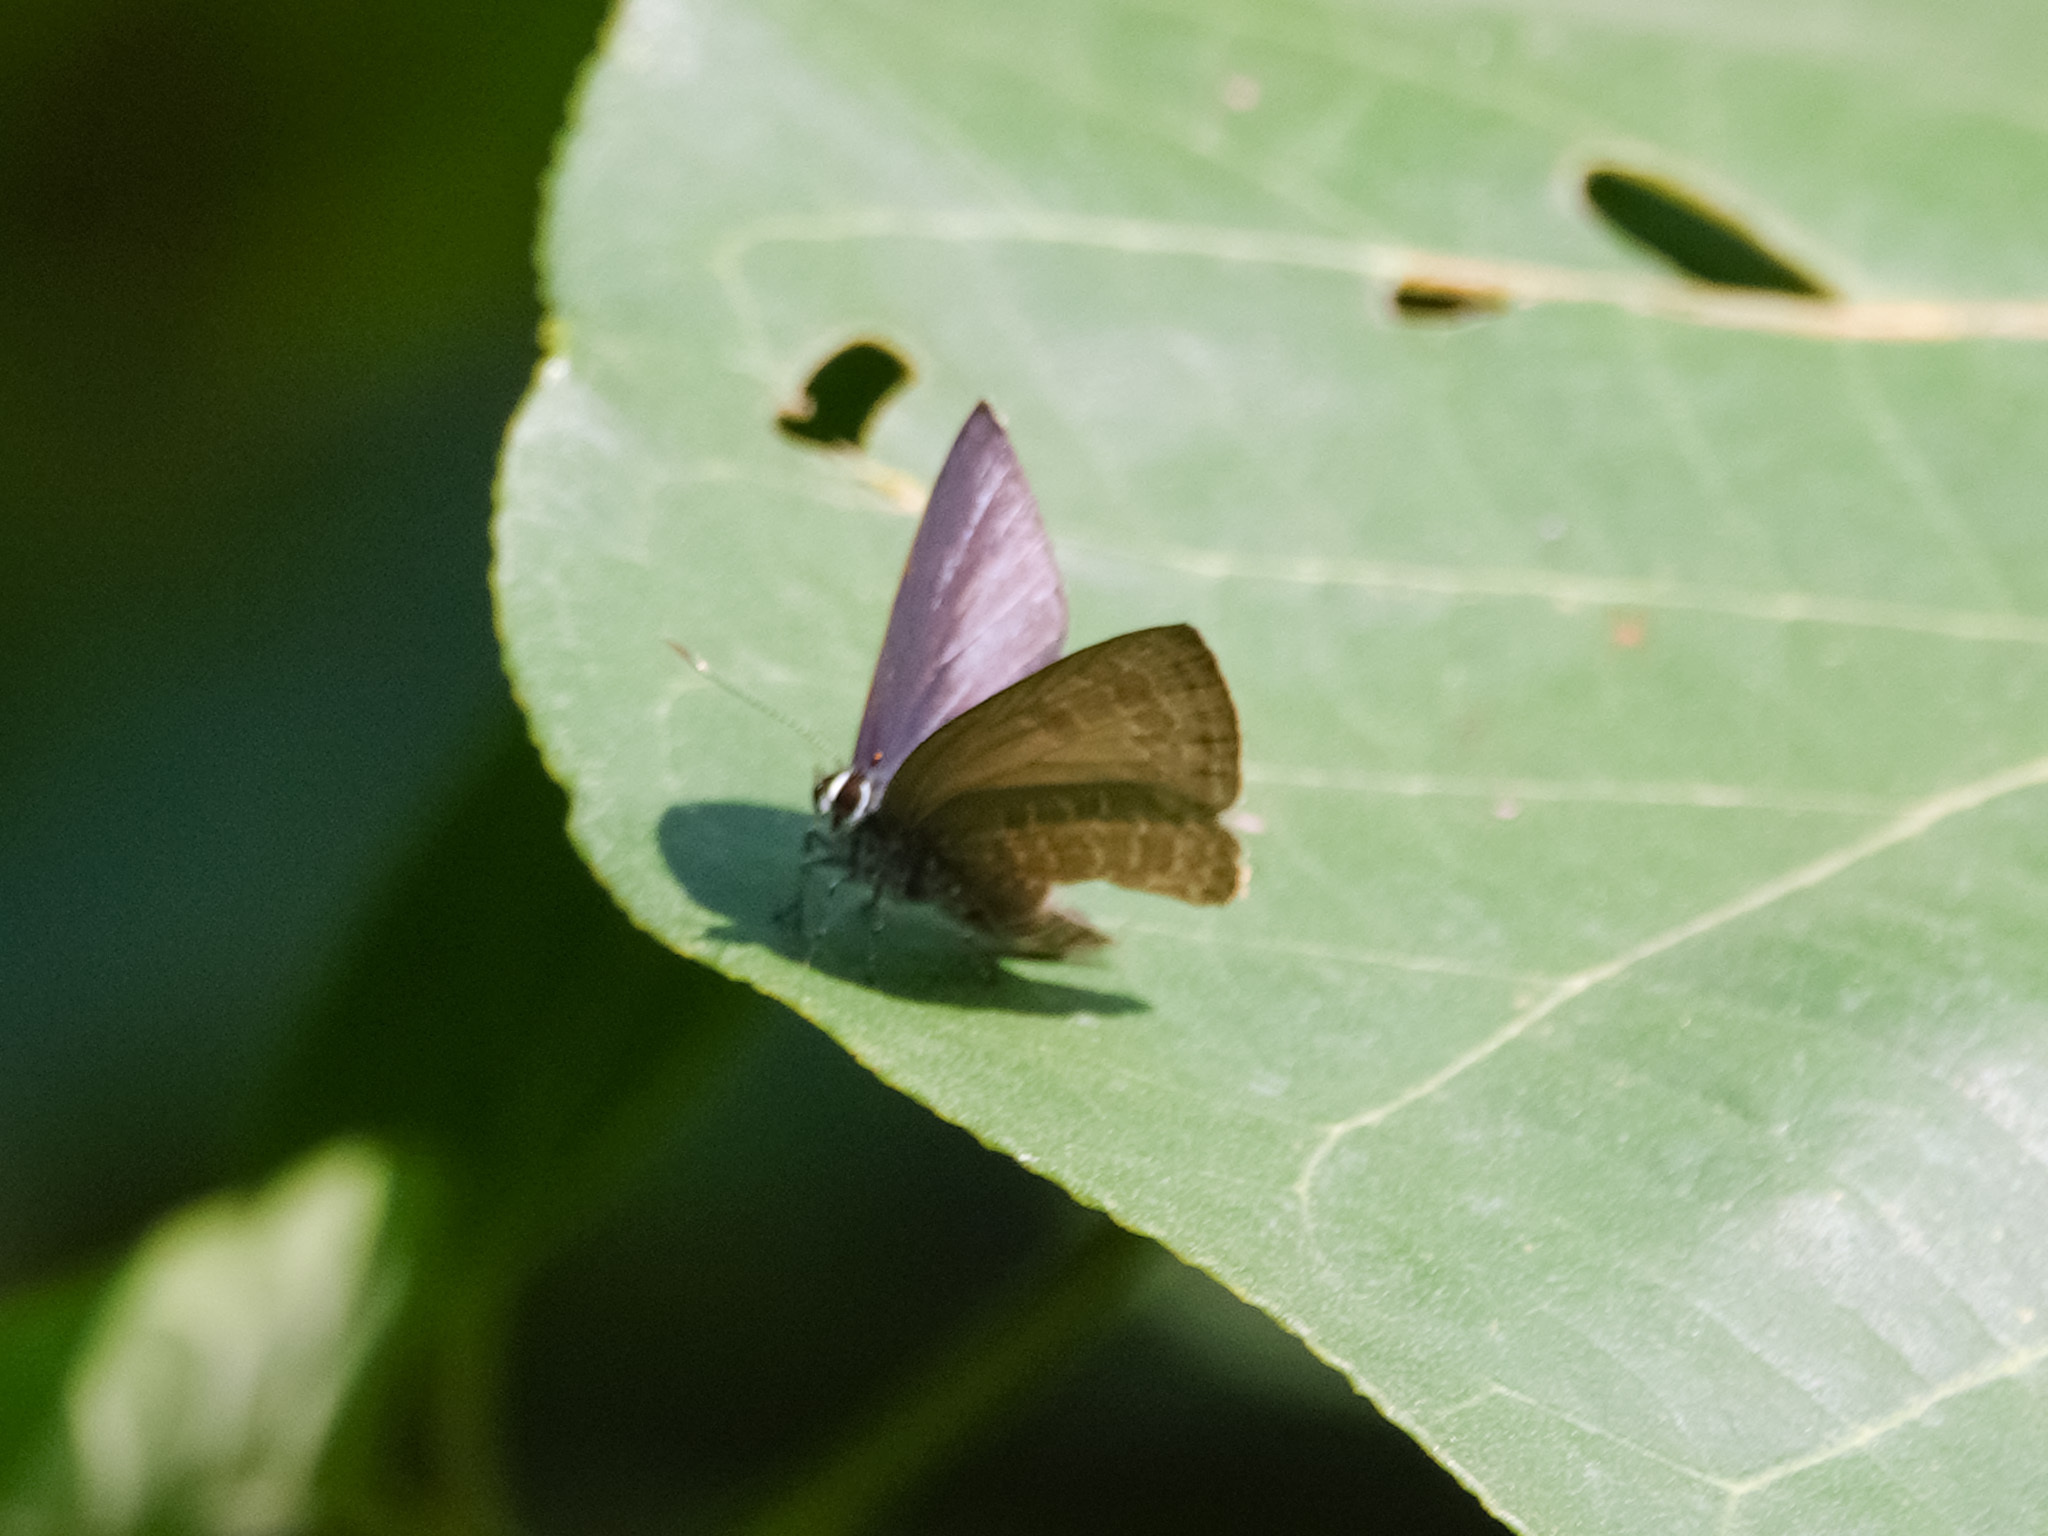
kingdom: Animalia
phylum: Arthropoda
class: Insecta
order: Lepidoptera
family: Lycaenidae
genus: Anthene
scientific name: Anthene emolus
